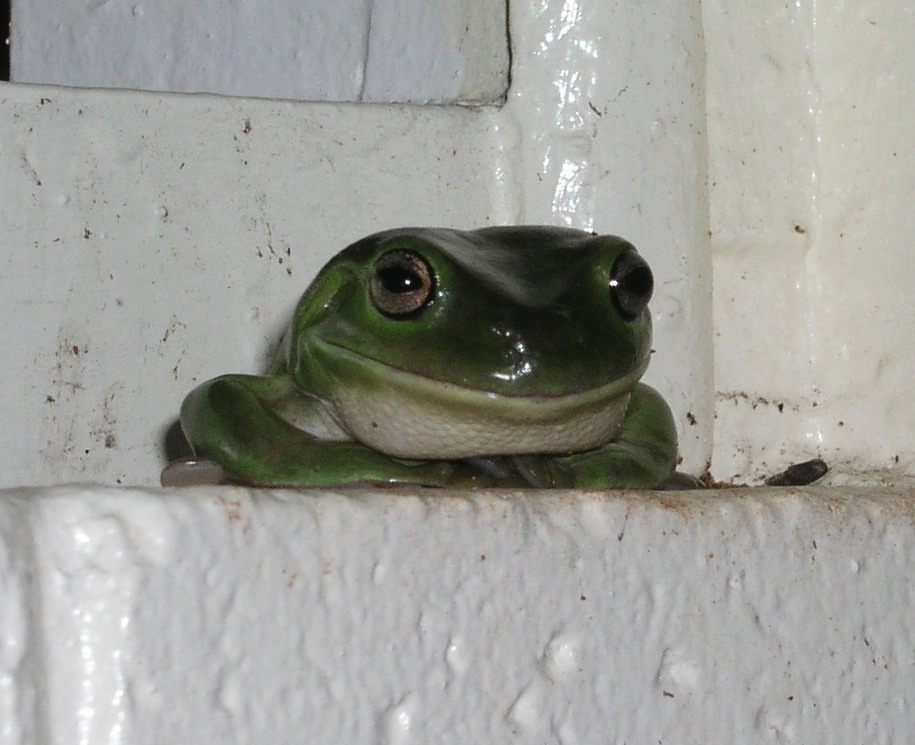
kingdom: Animalia
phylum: Chordata
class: Amphibia
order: Anura
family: Pelodryadidae
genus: Ranoidea
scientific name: Ranoidea caerulea
